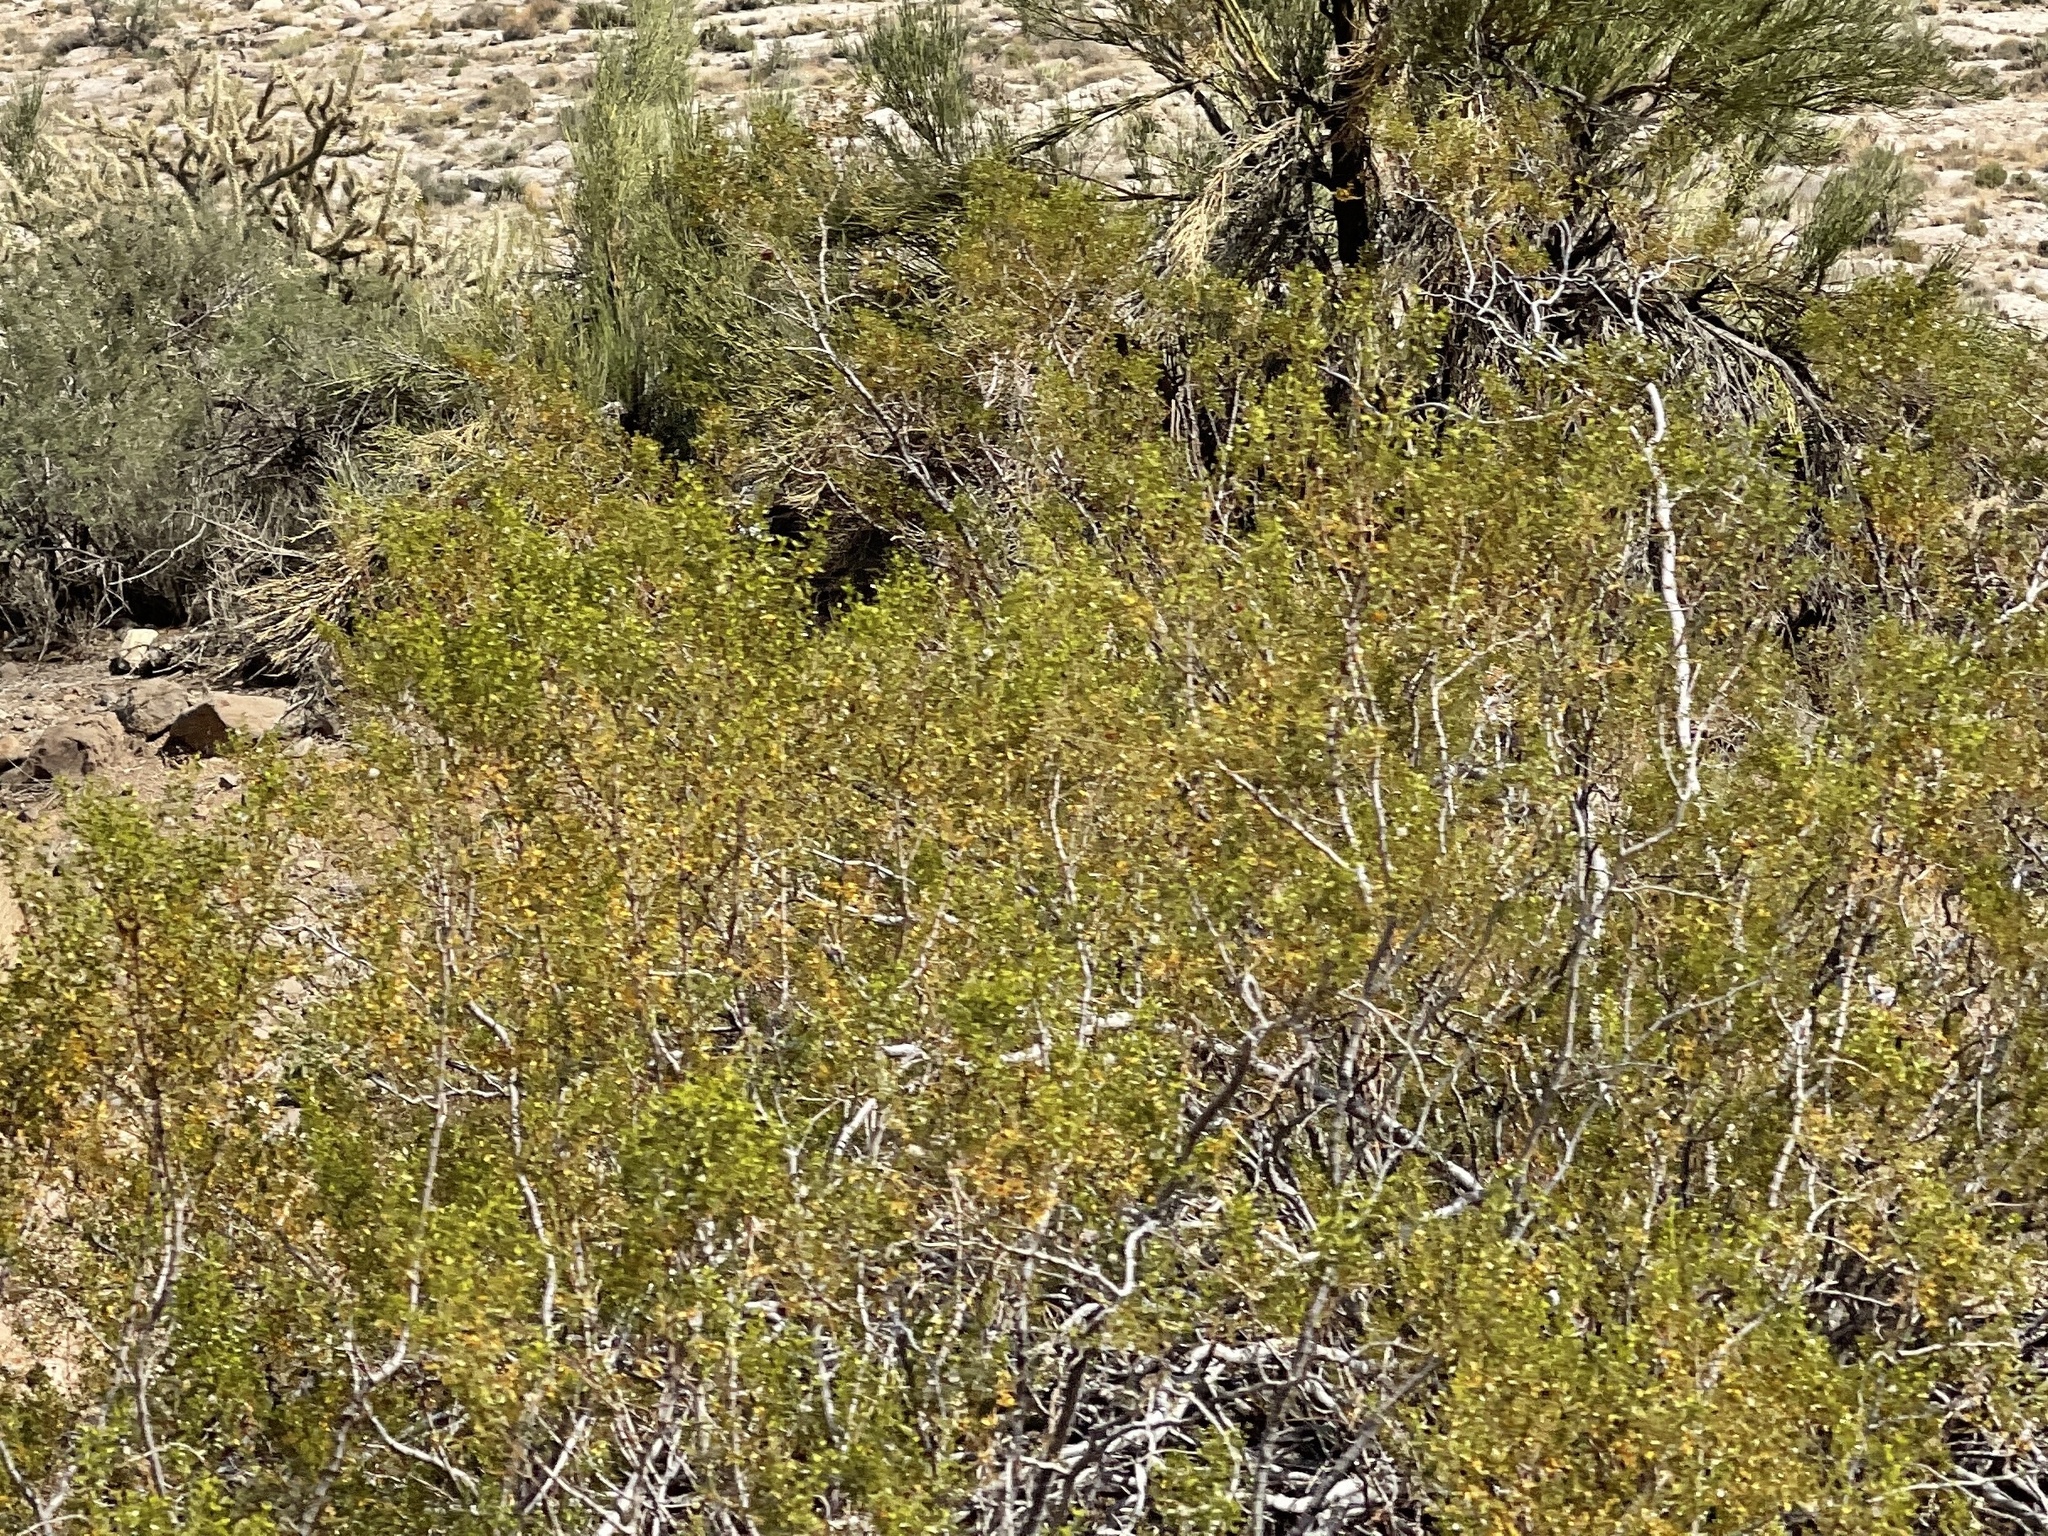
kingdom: Plantae
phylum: Tracheophyta
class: Magnoliopsida
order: Zygophyllales
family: Zygophyllaceae
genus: Larrea
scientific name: Larrea tridentata
